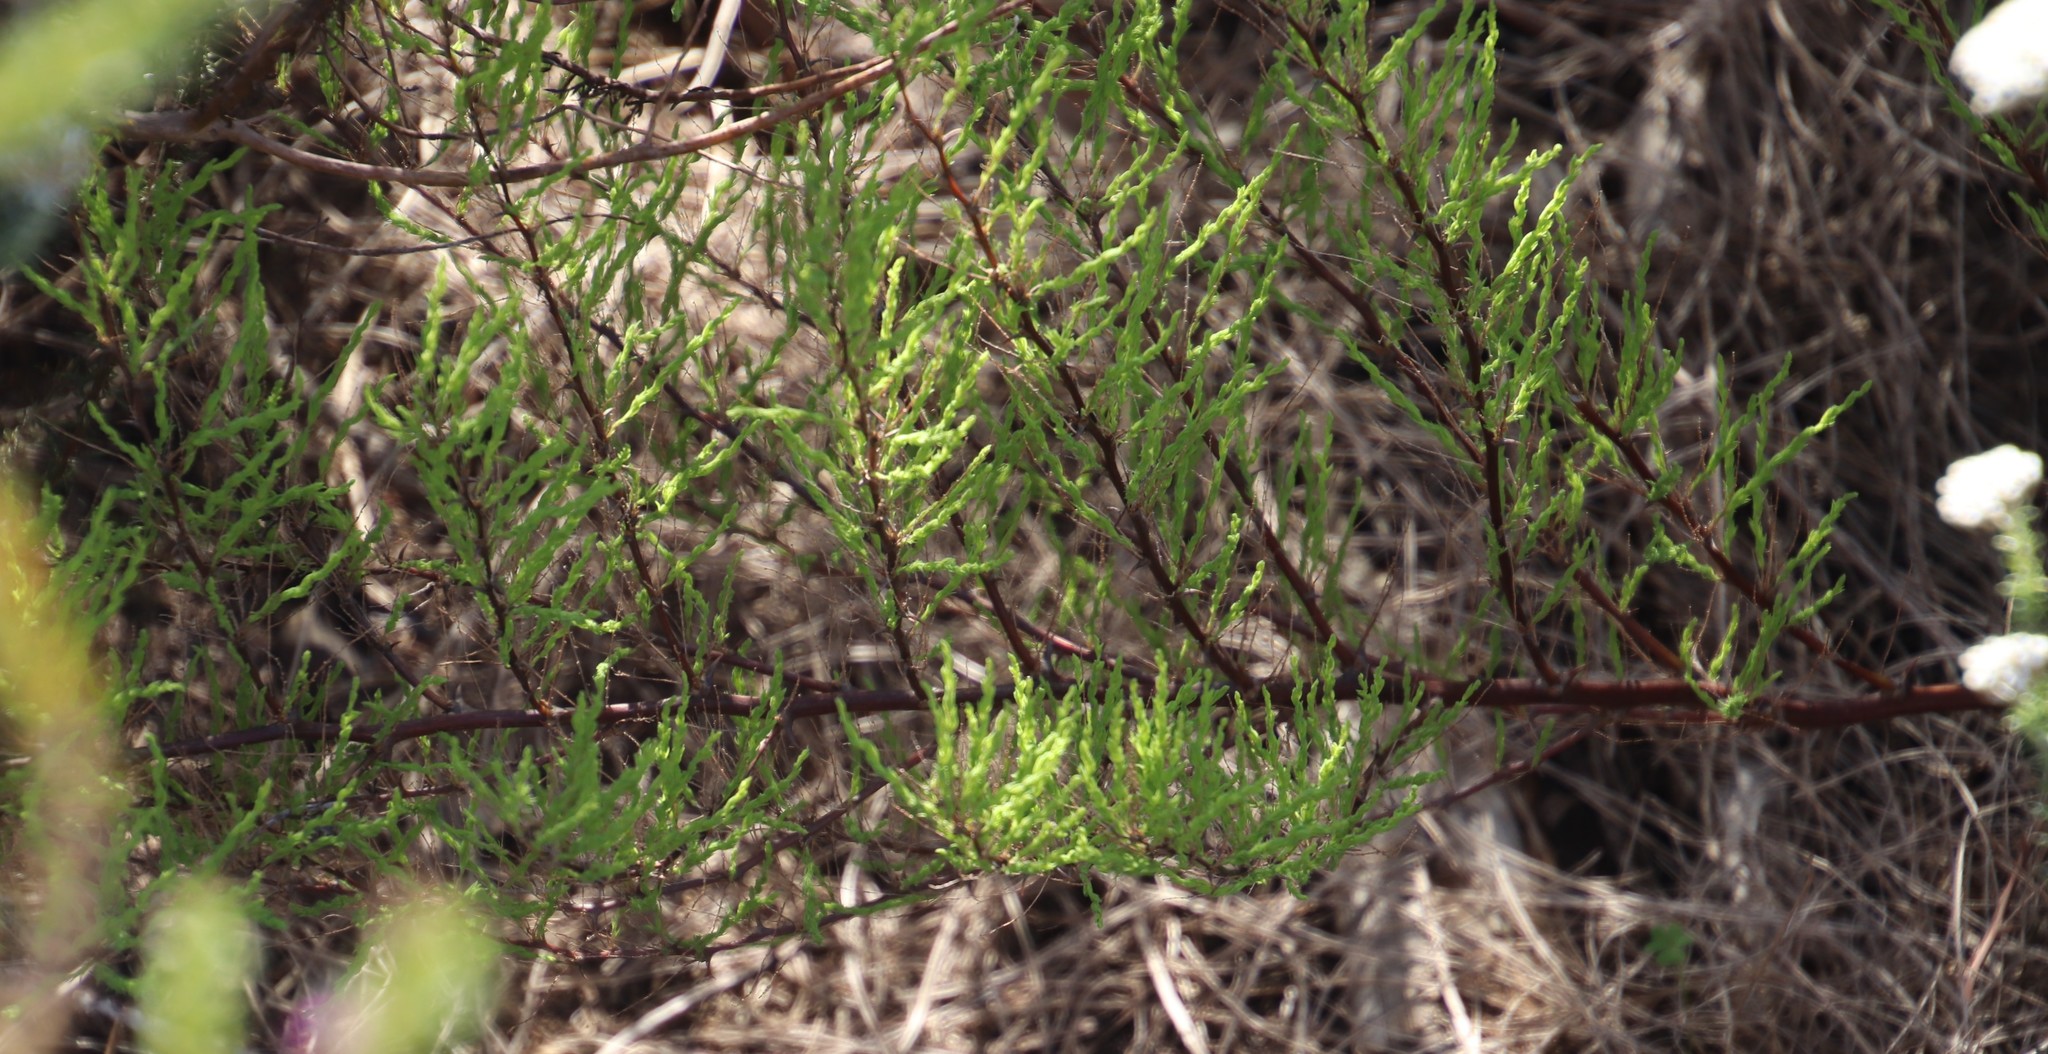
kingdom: Plantae
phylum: Tracheophyta
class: Liliopsida
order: Asparagales
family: Asparagaceae
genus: Asparagus
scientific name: Asparagus rubicundus
